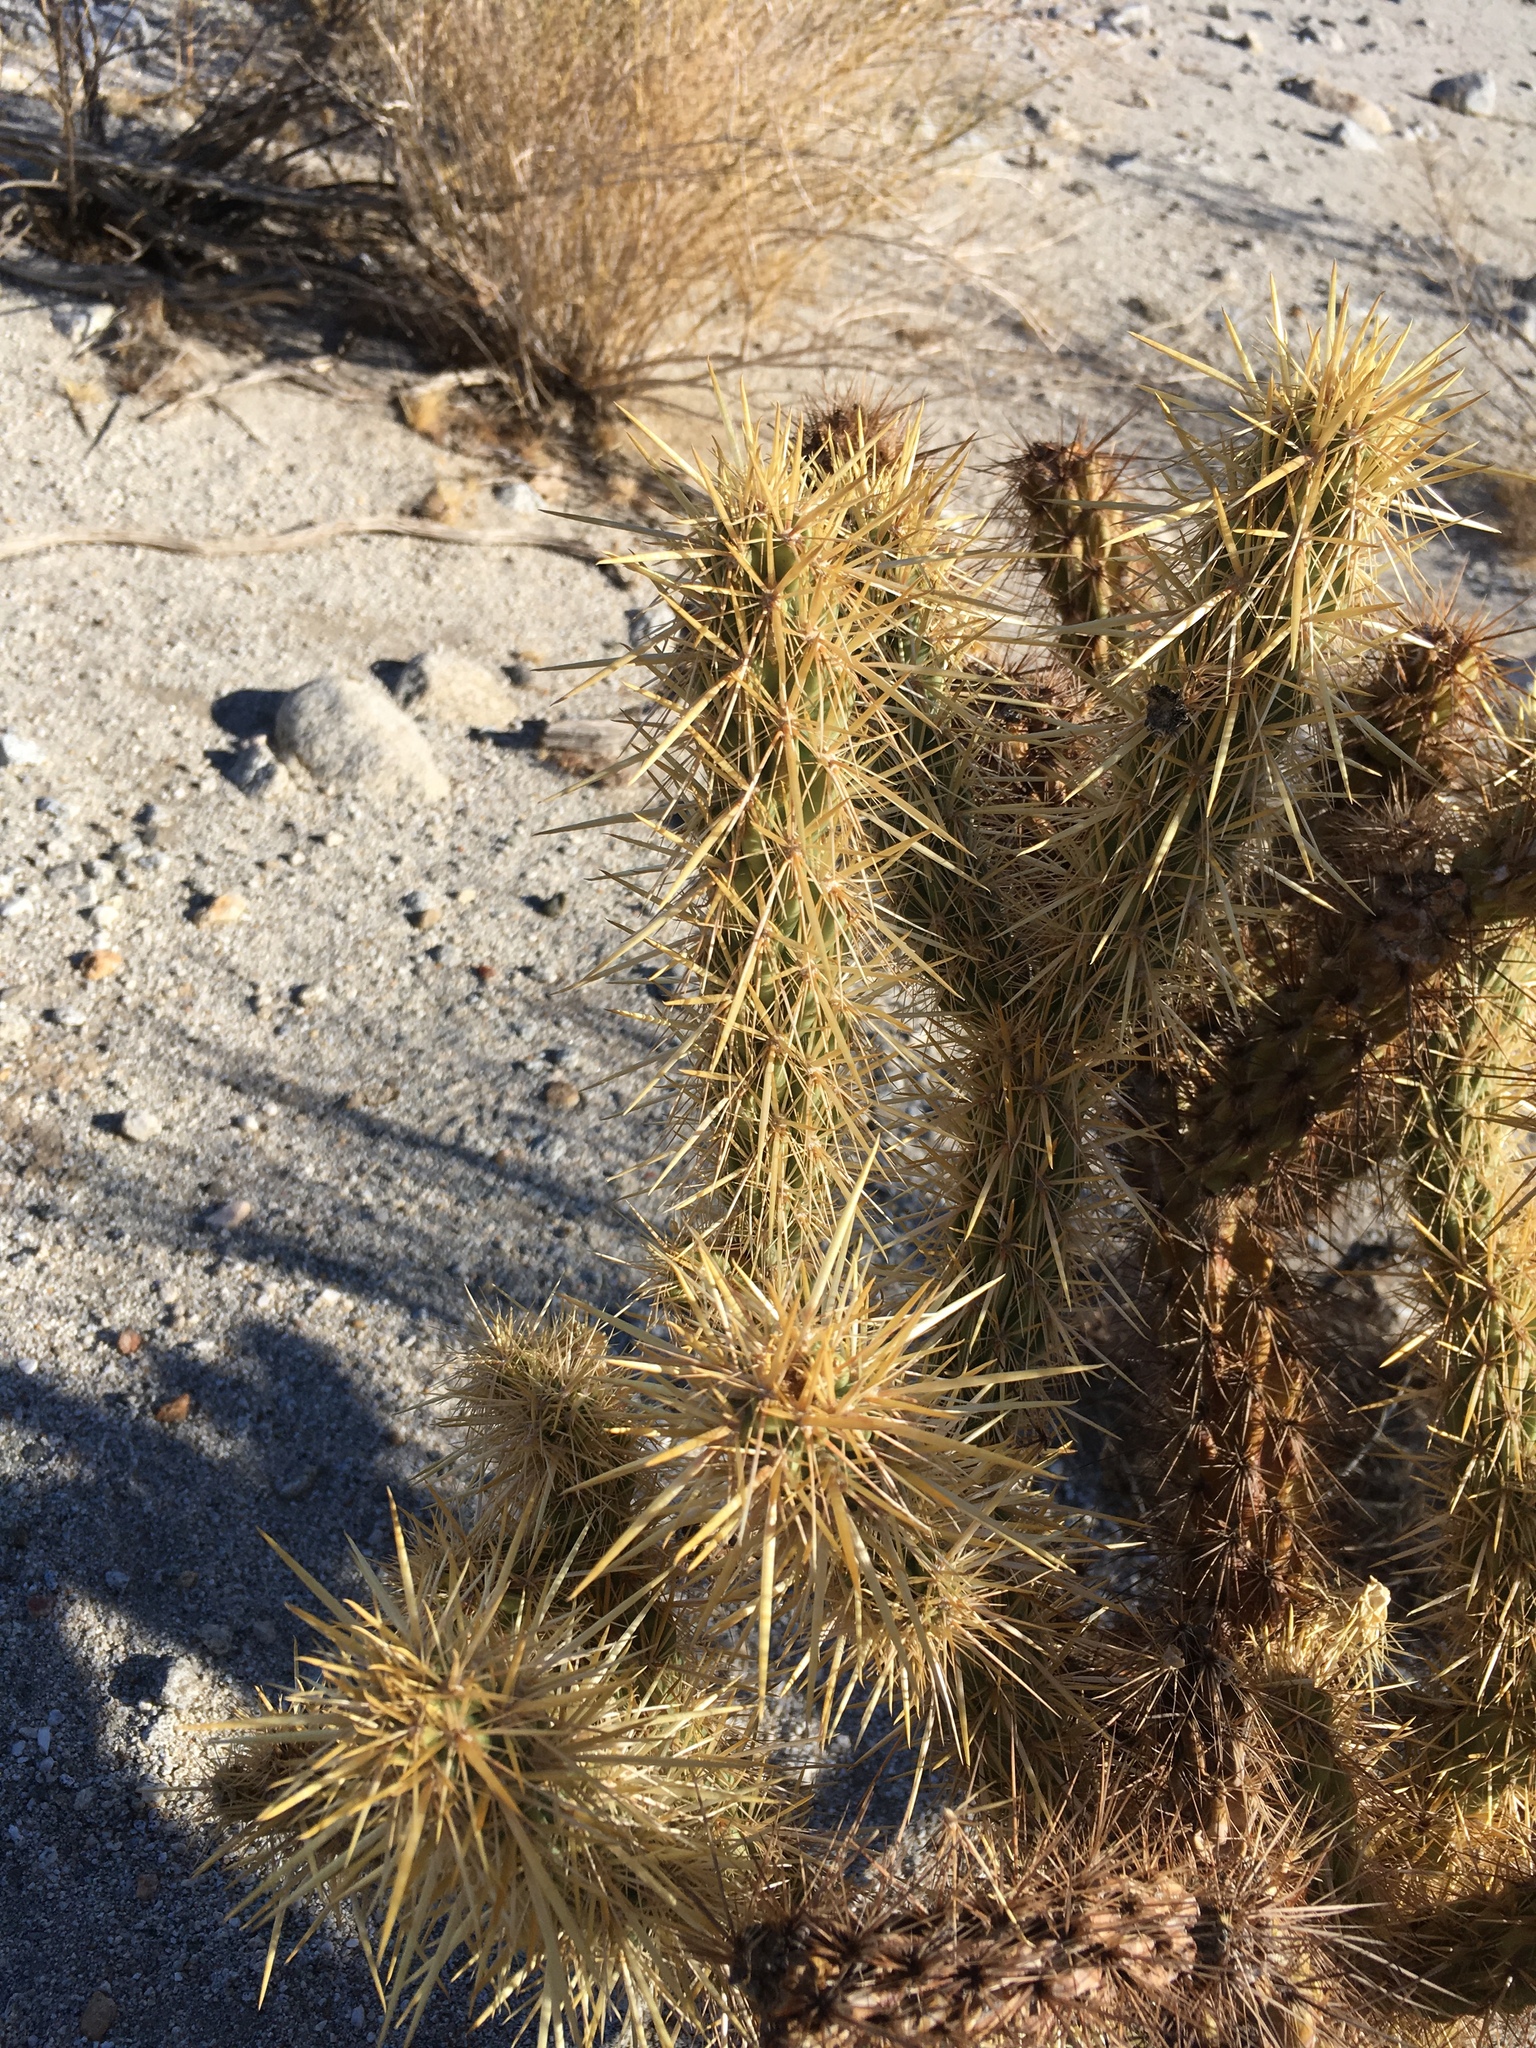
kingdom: Plantae
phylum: Tracheophyta
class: Magnoliopsida
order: Caryophyllales
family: Cactaceae
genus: Cylindropuntia
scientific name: Cylindropuntia echinocarpa
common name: Ground cholla
